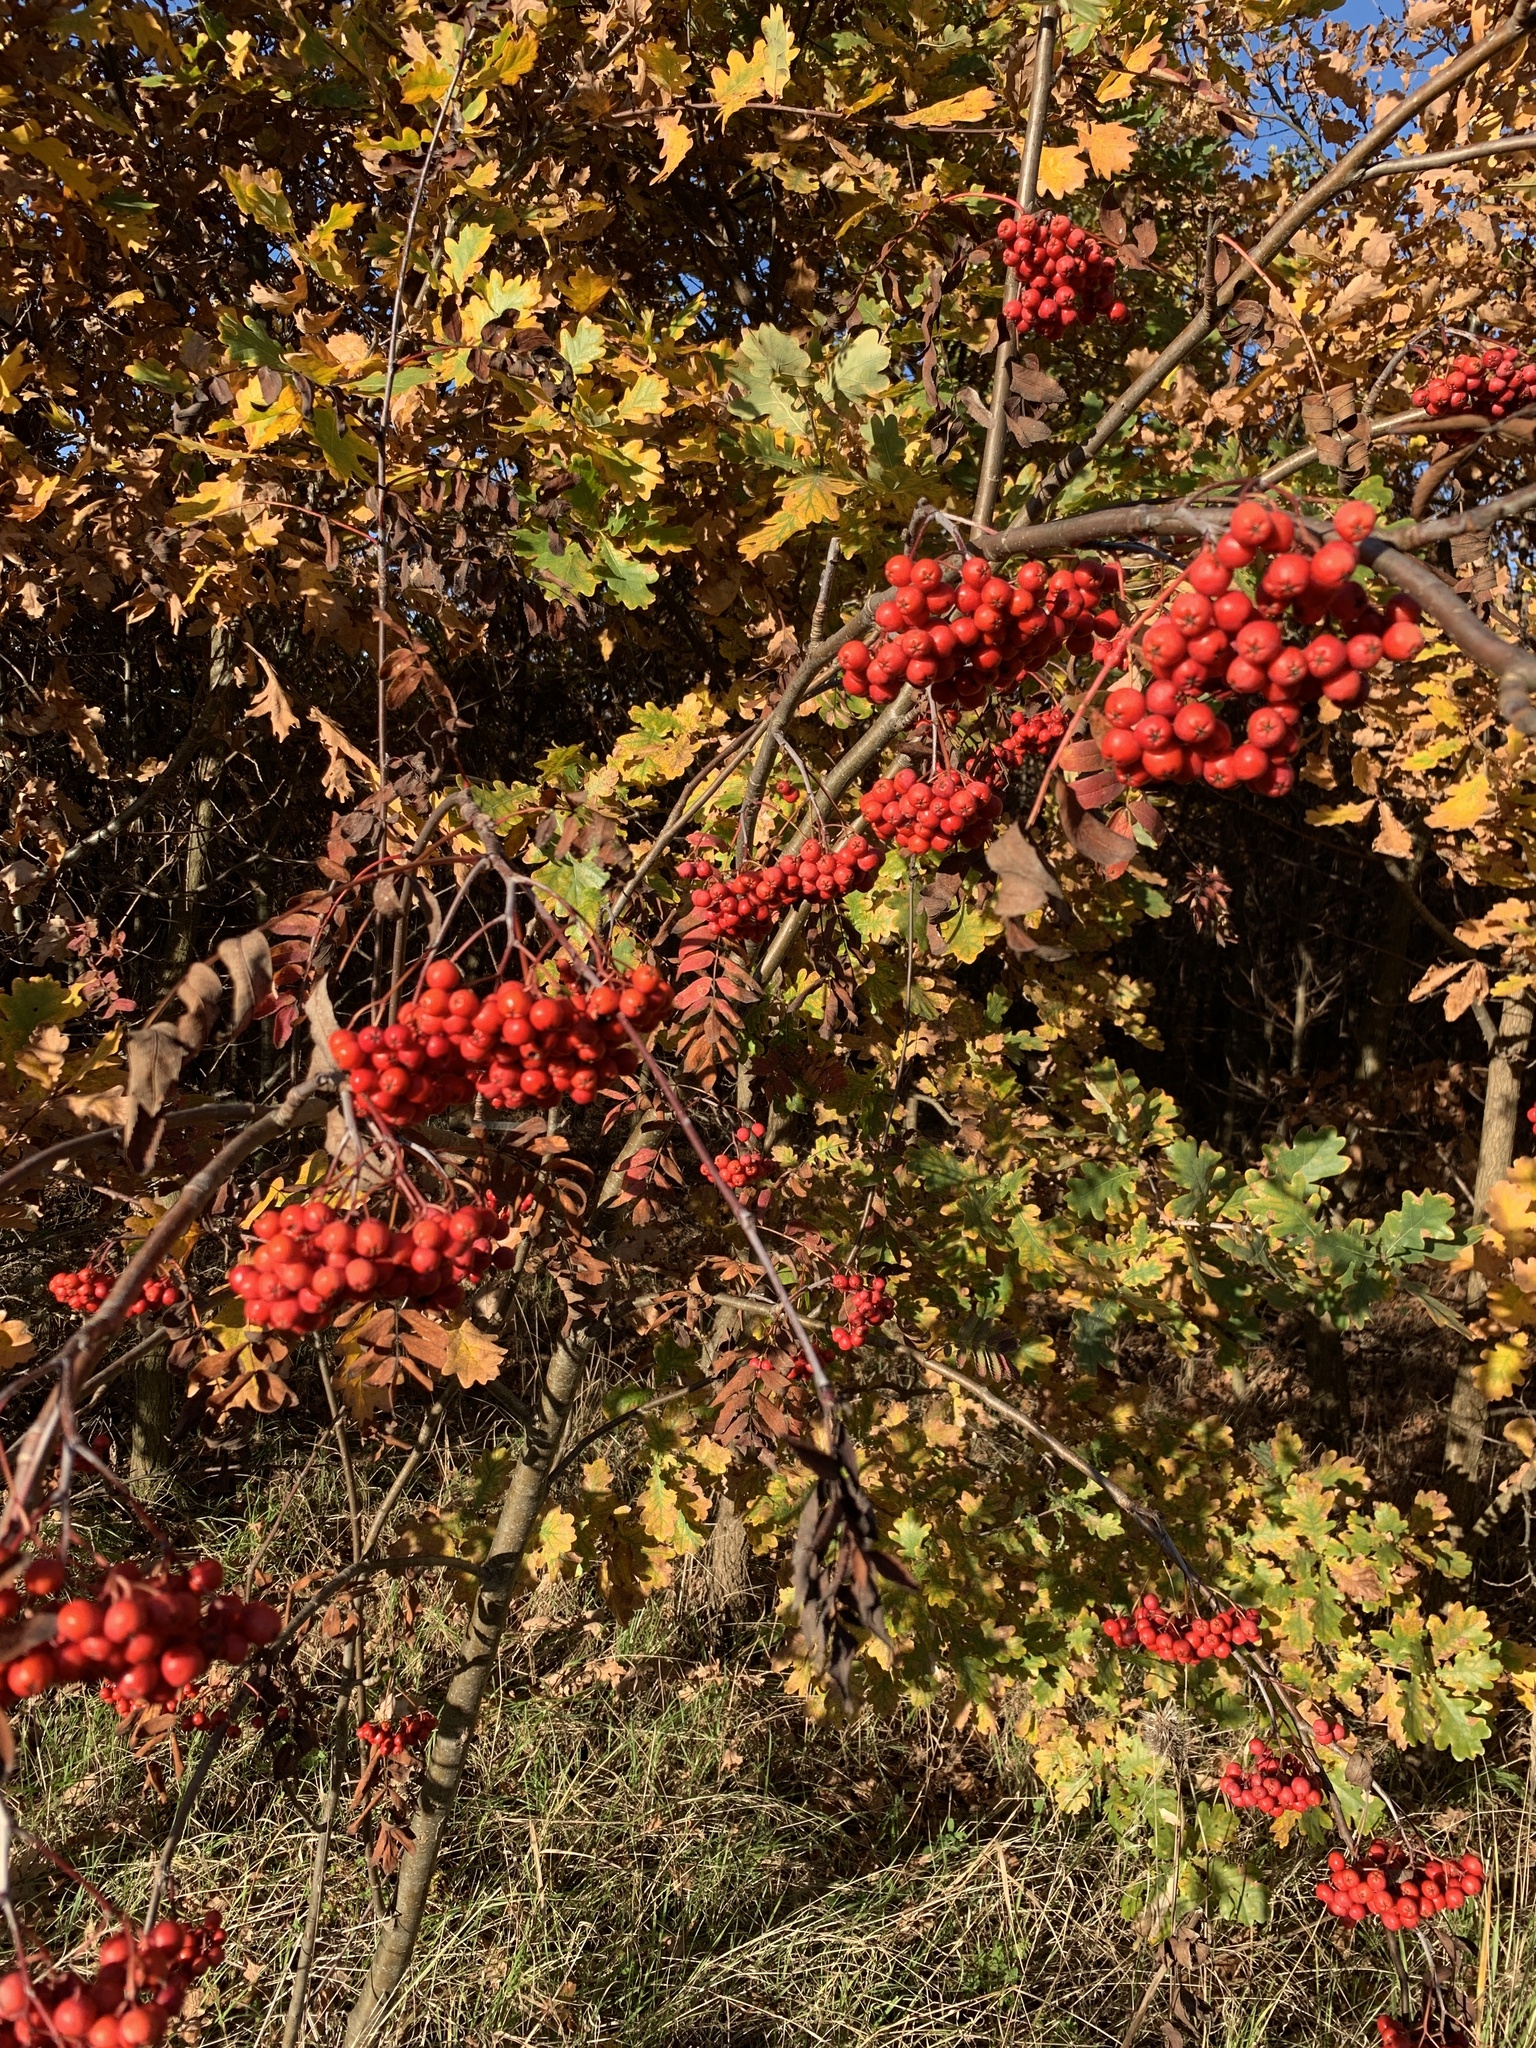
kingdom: Plantae
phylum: Tracheophyta
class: Magnoliopsida
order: Rosales
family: Rosaceae
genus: Sorbus
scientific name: Sorbus aucuparia
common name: Rowan
